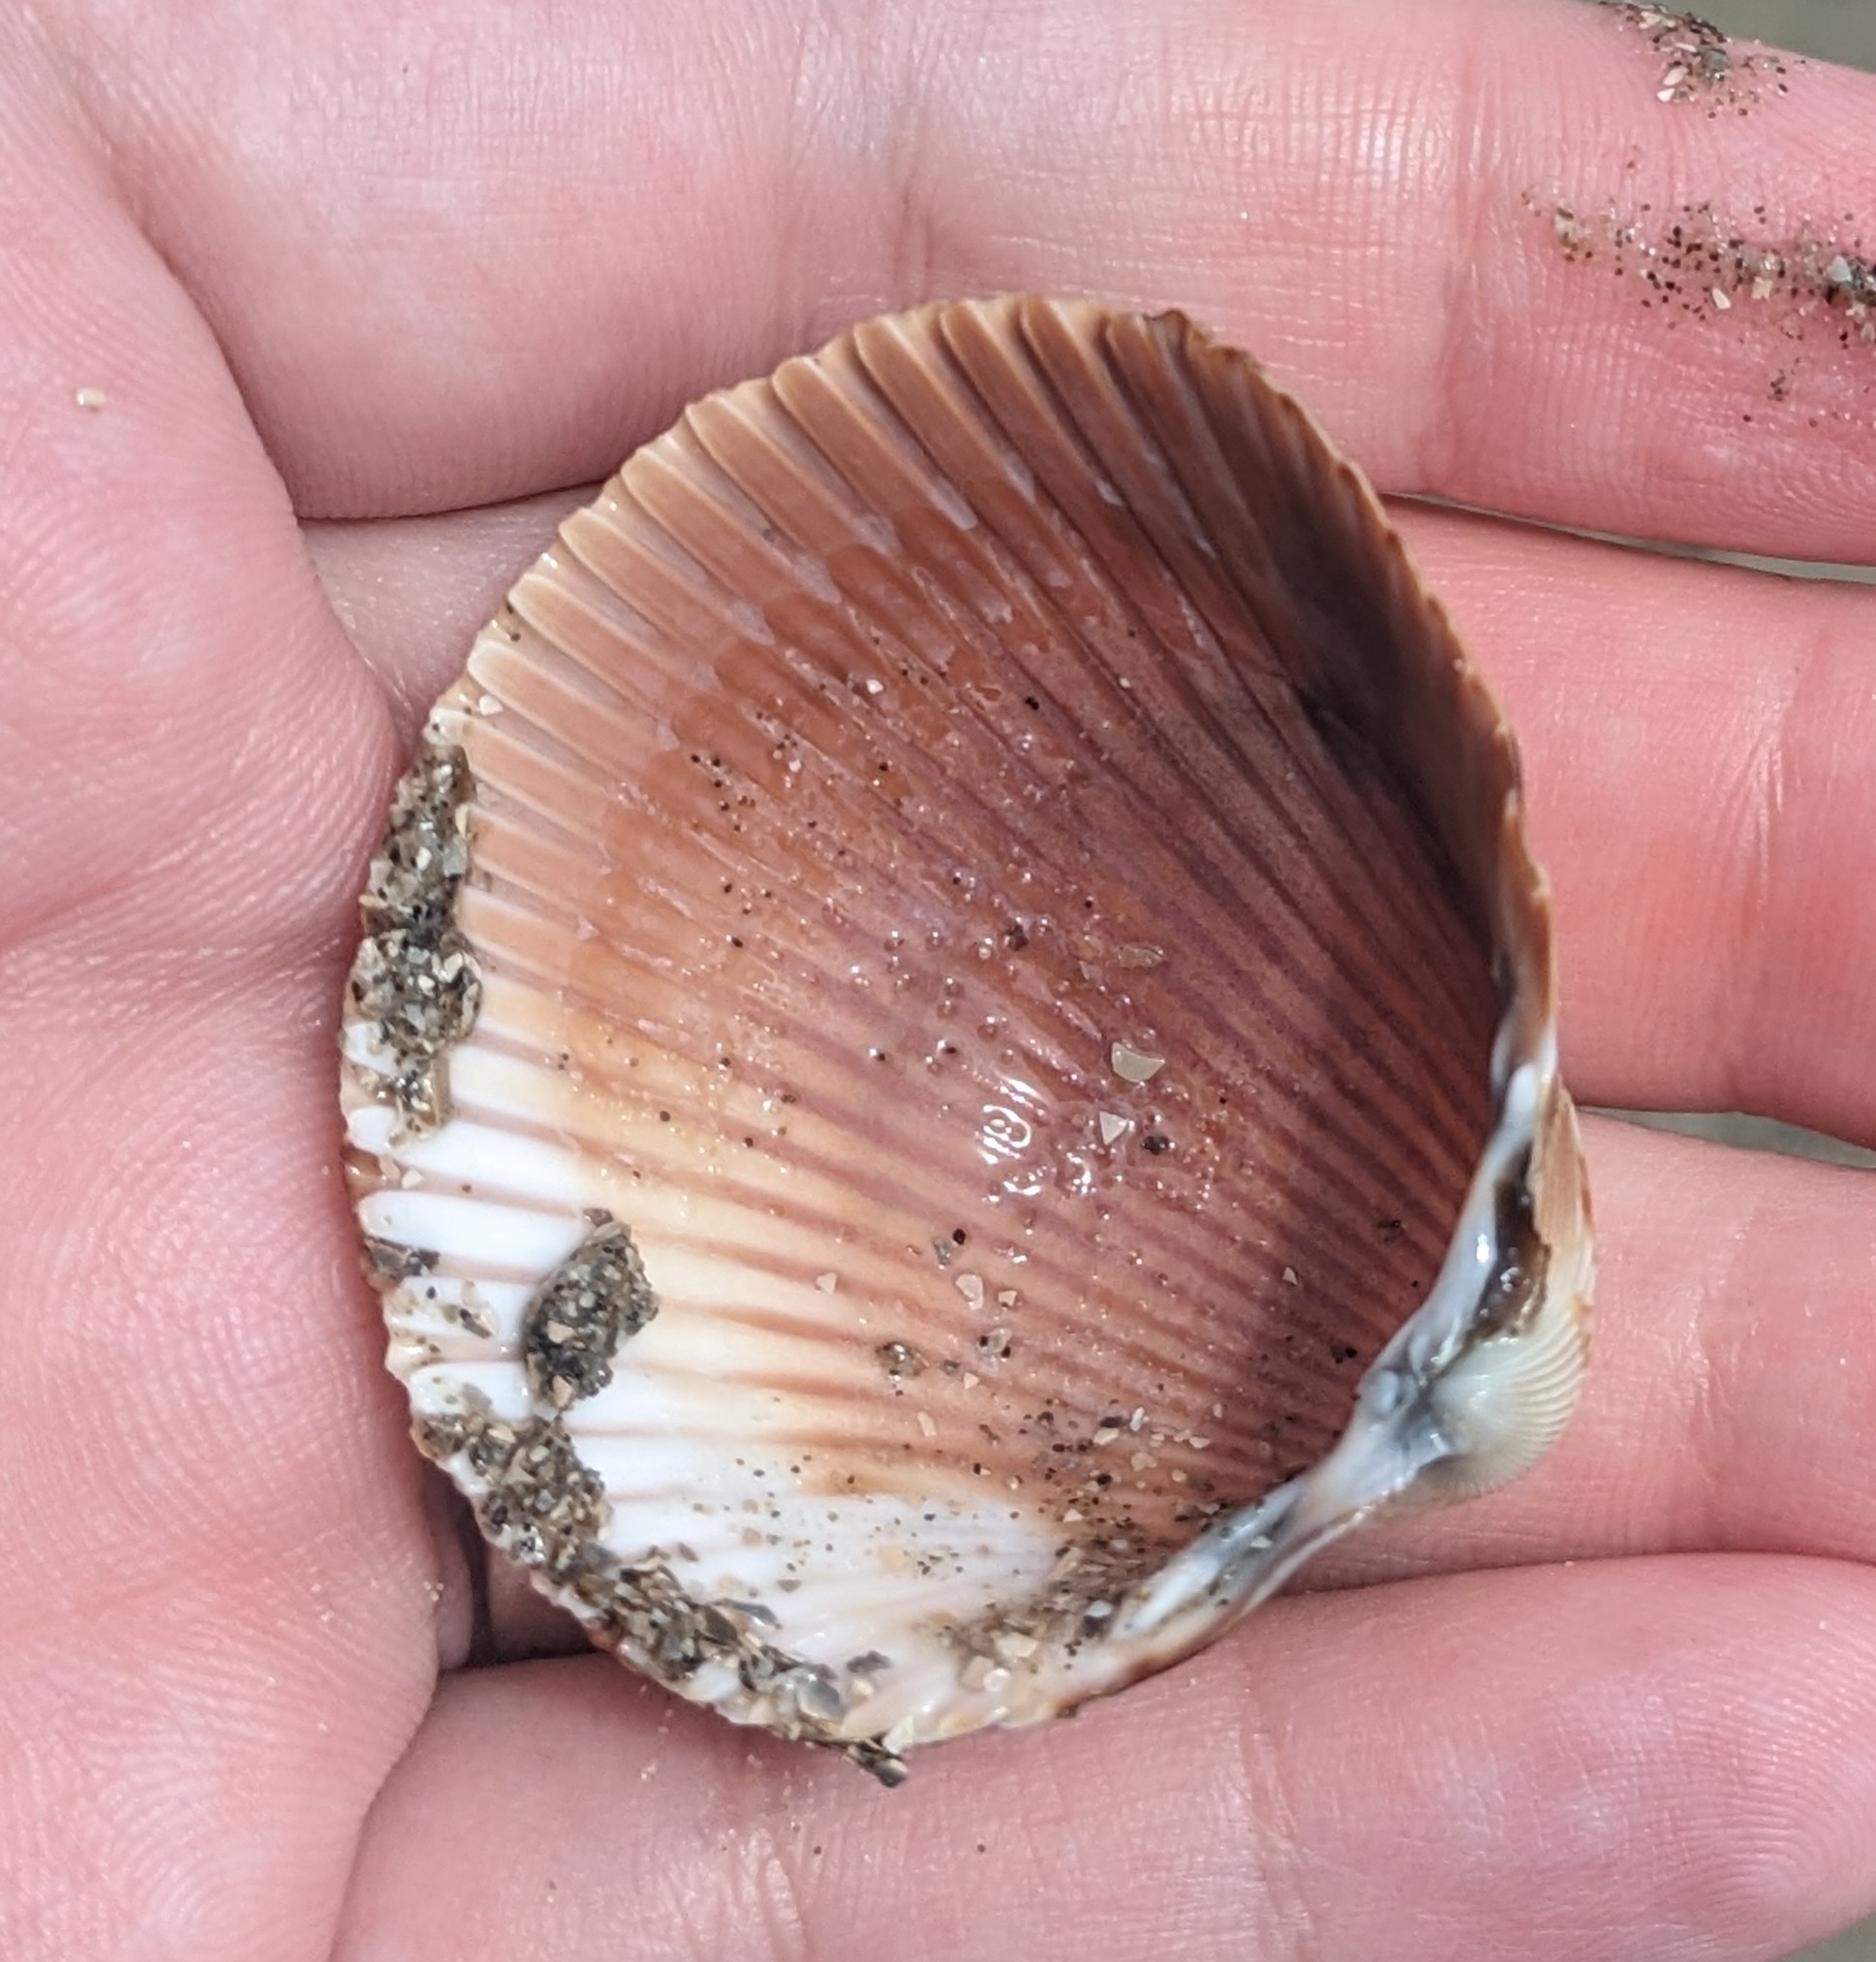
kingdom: Animalia
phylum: Mollusca
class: Bivalvia
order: Cardiida
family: Cardiidae
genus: Dinocardium
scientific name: Dinocardium robustum
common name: Atlantic giant cockle
